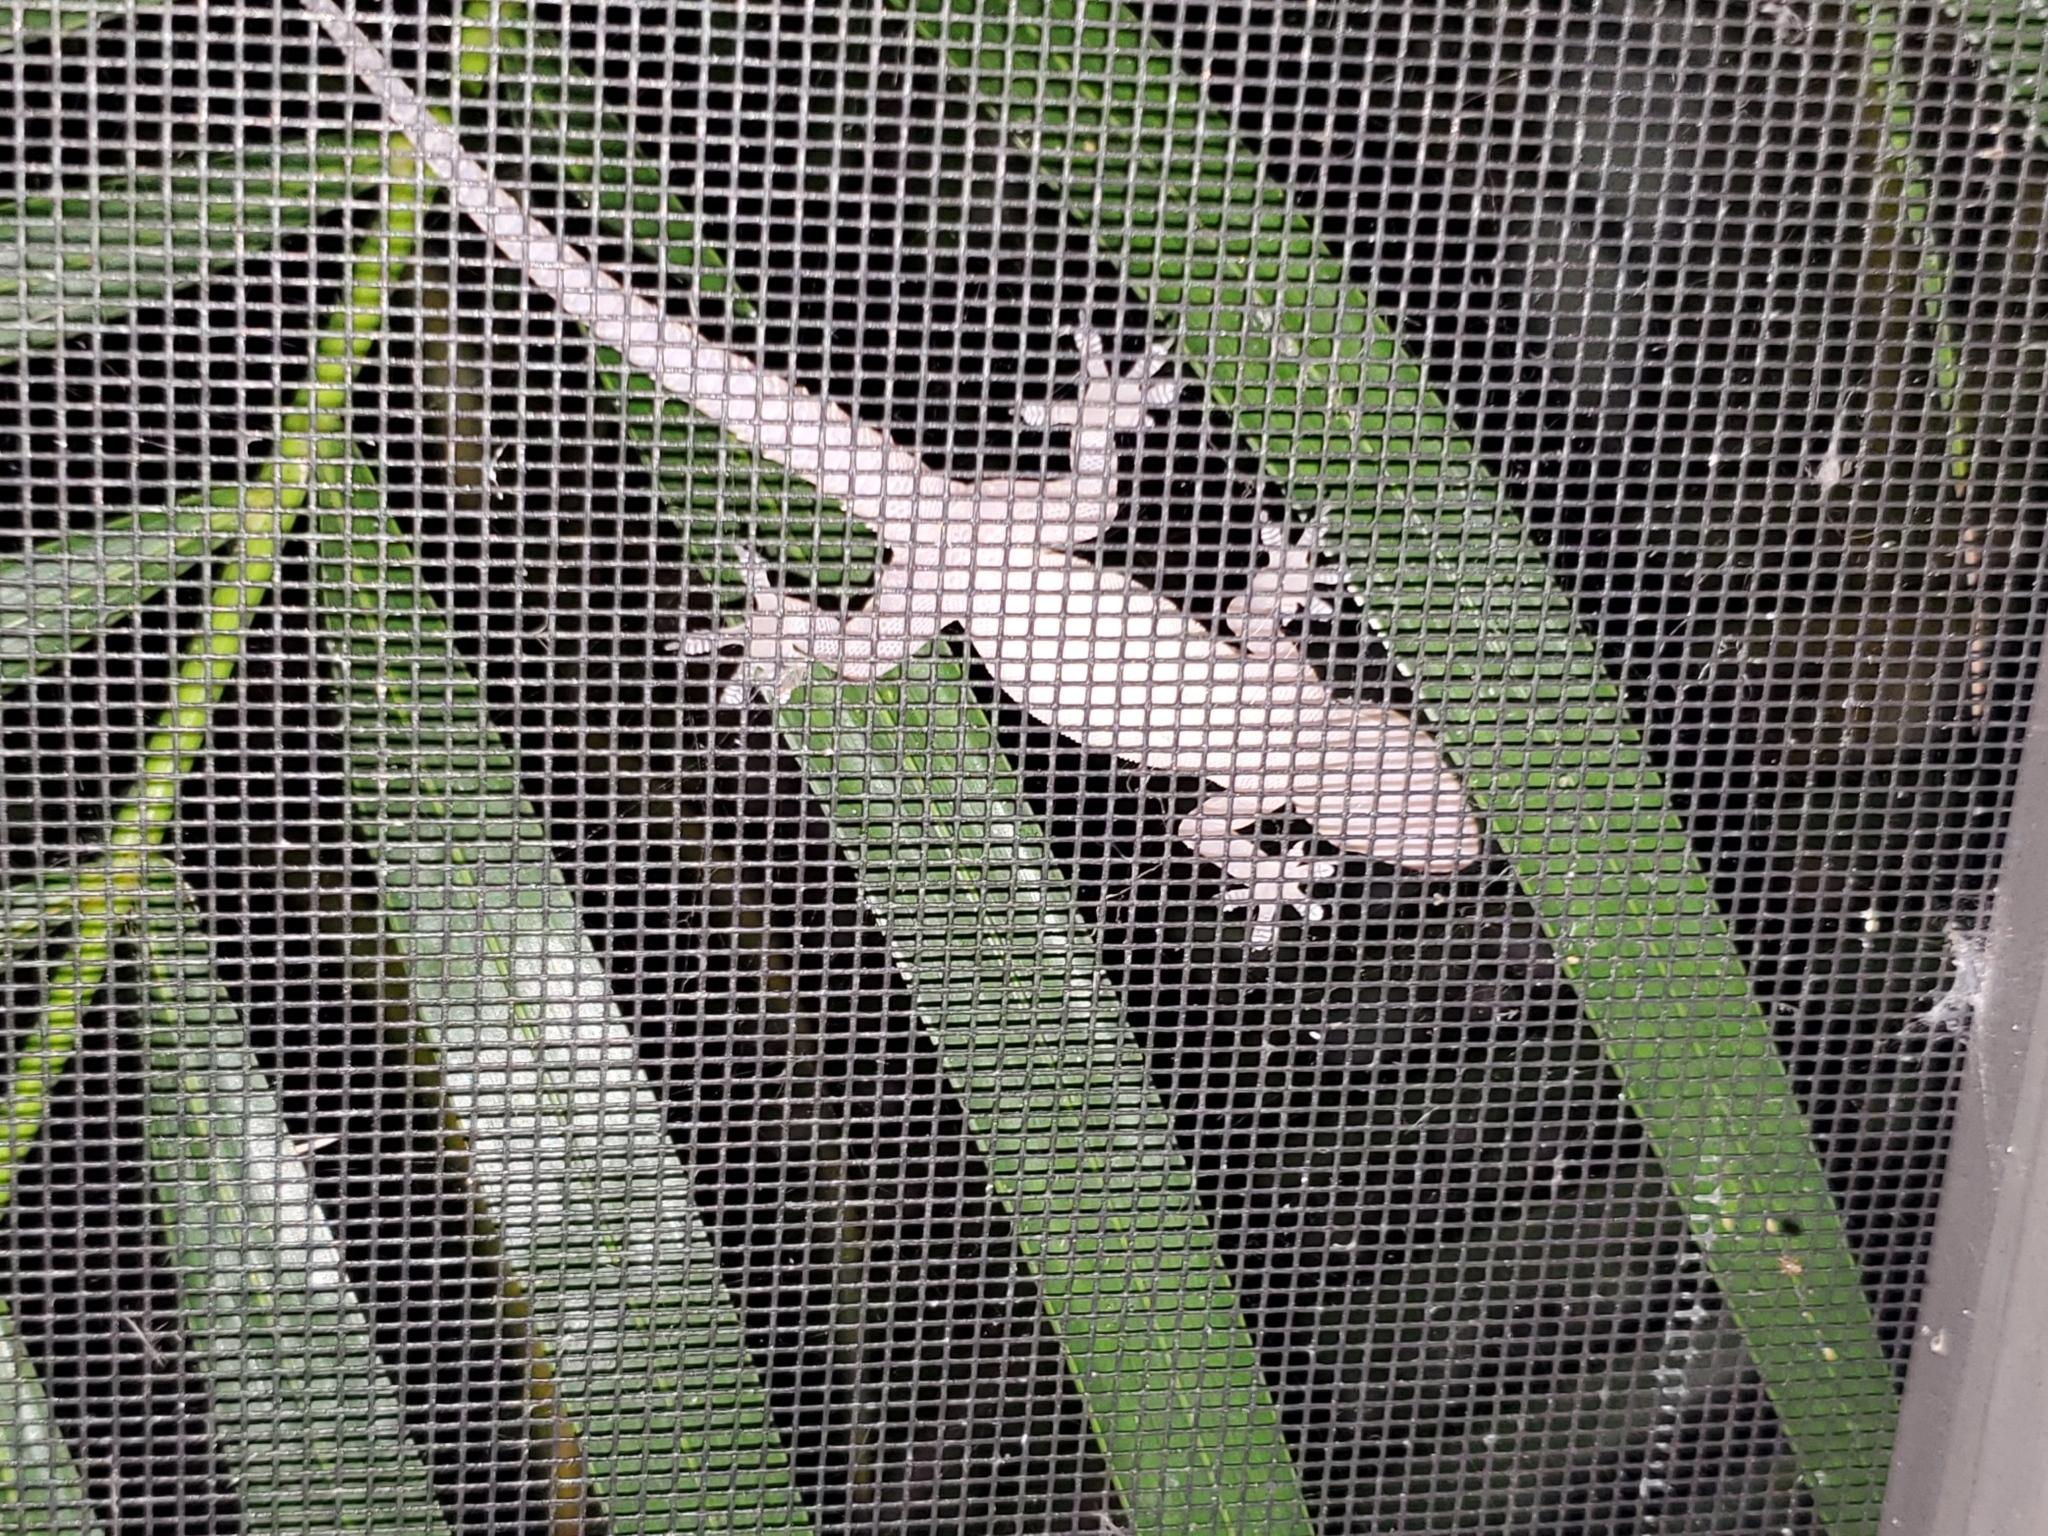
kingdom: Animalia
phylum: Chordata
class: Squamata
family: Gekkonidae
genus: Hemidactylus
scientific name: Hemidactylus mabouia
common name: House gecko
